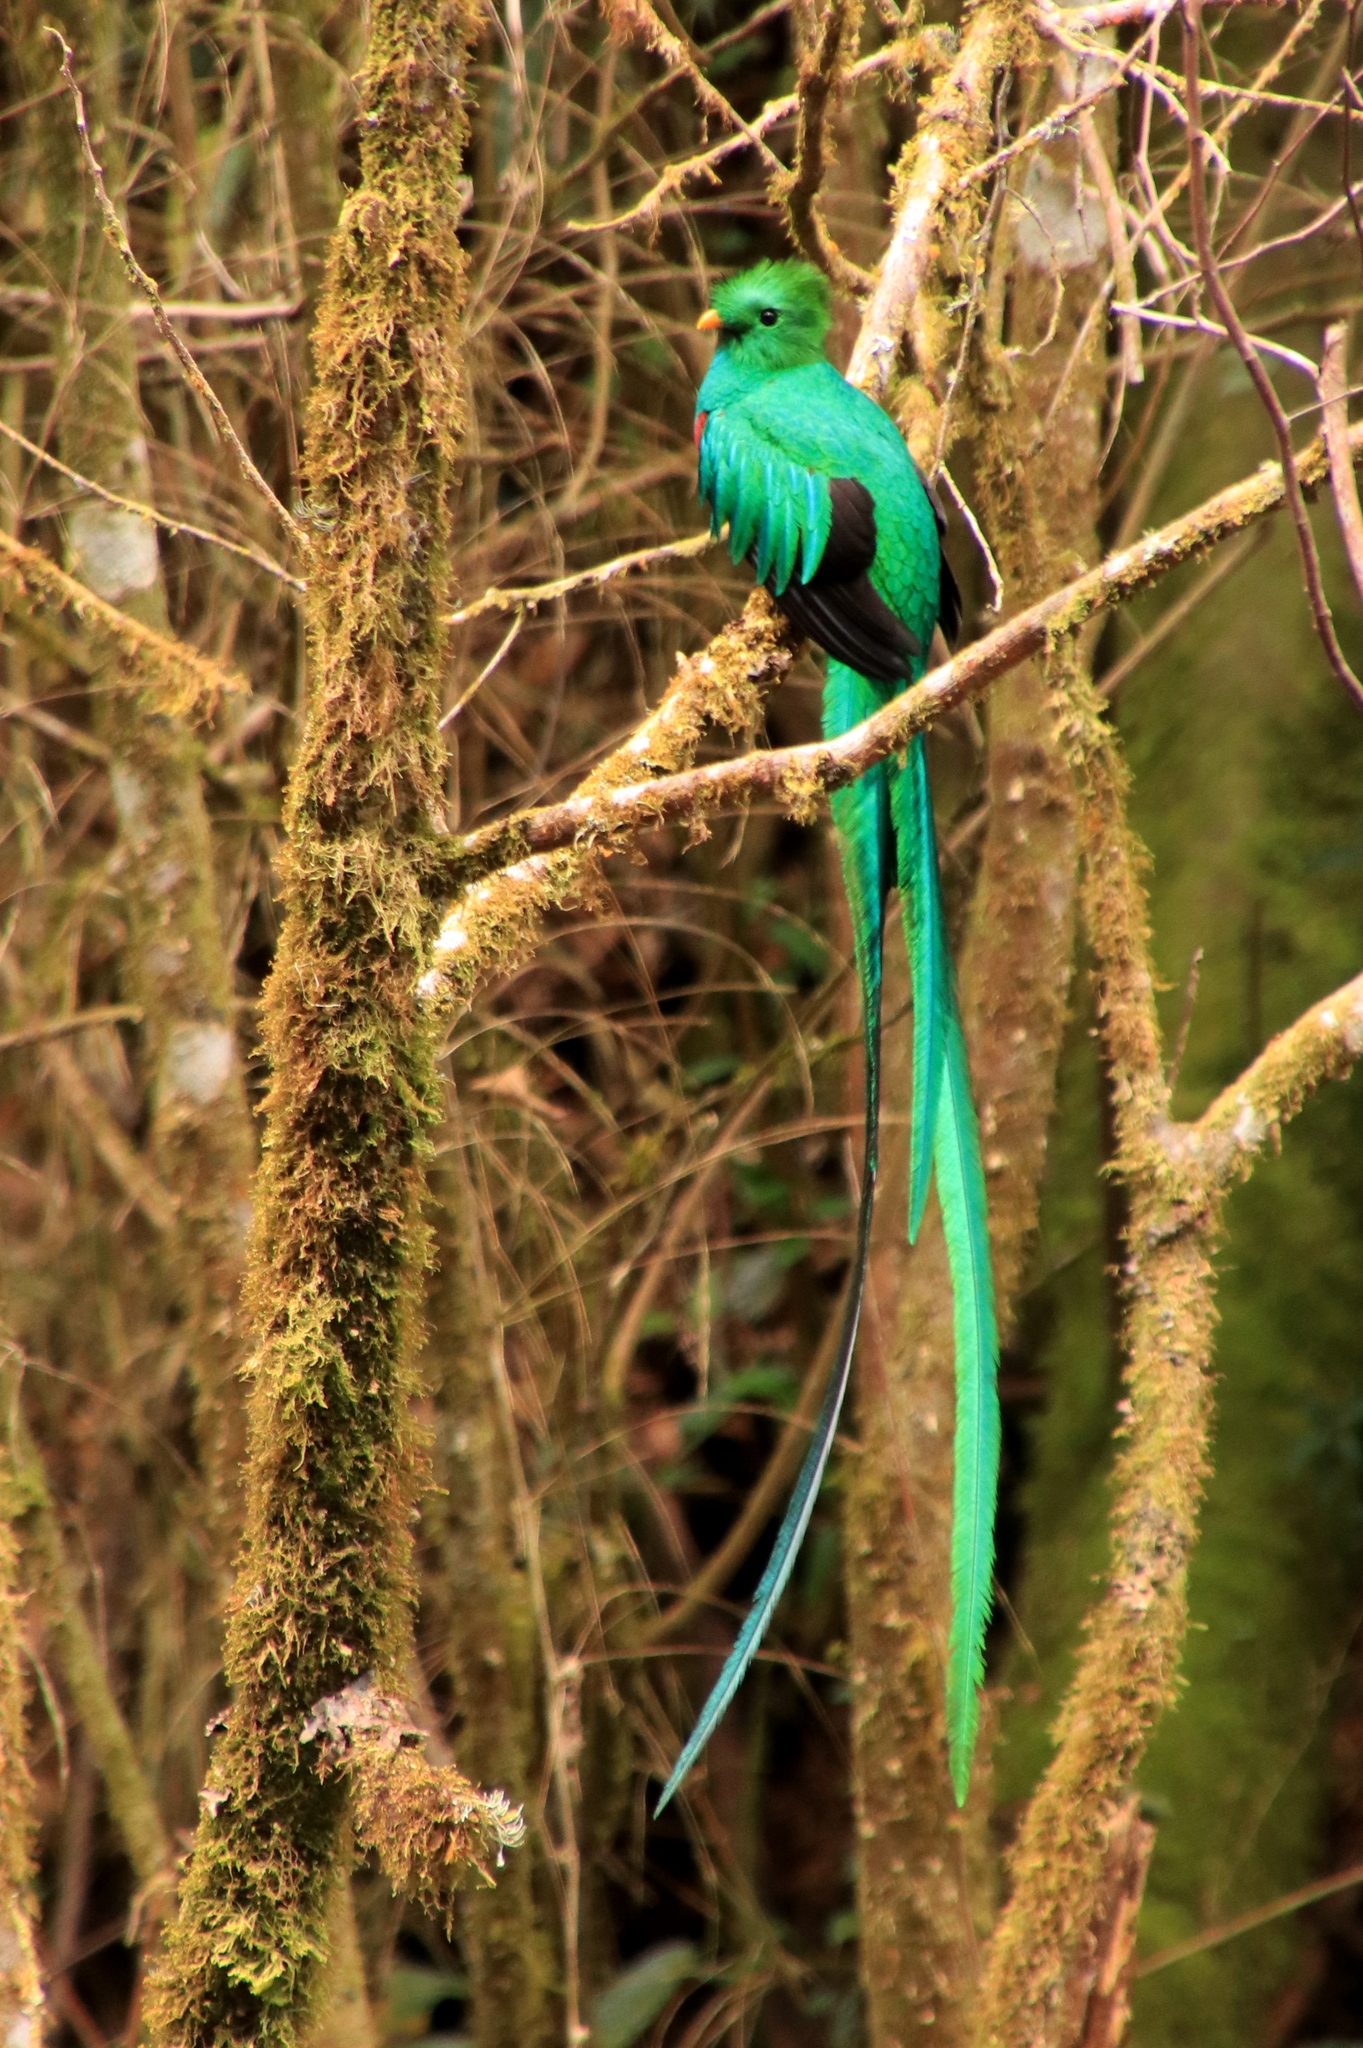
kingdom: Animalia
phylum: Chordata
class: Aves
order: Trogoniformes
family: Trogonidae
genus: Pharomachrus
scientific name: Pharomachrus mocinno
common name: Resplendent quetzal
